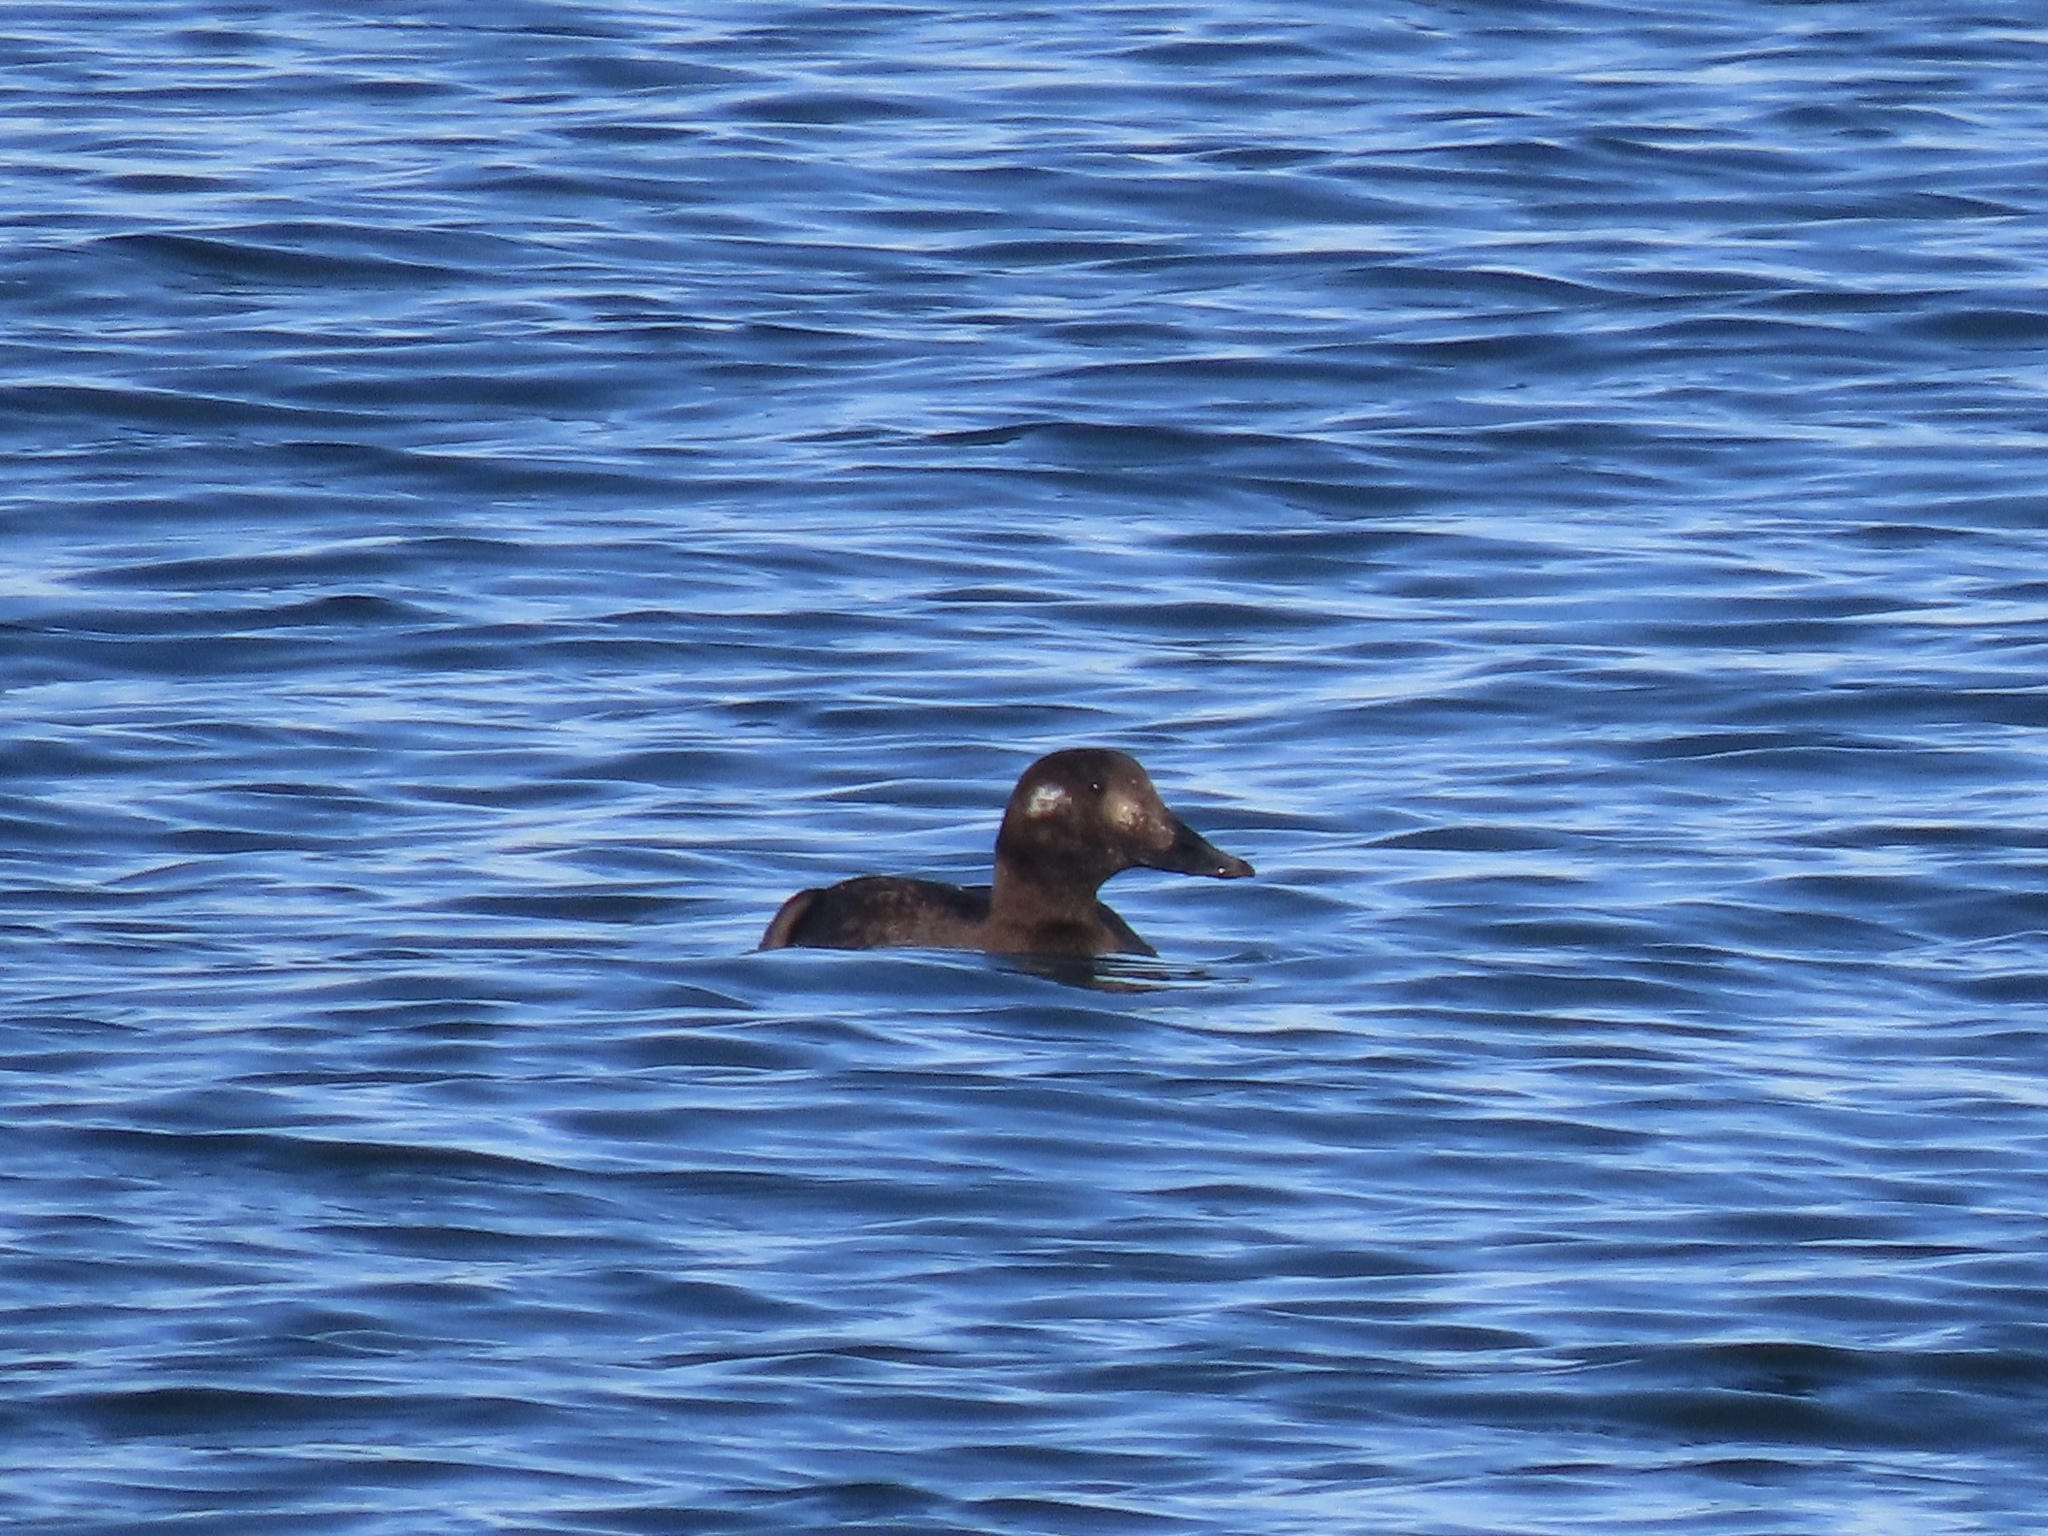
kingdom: Animalia
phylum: Chordata
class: Aves
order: Anseriformes
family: Anatidae
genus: Melanitta
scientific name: Melanitta deglandi
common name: White-winged scoter
